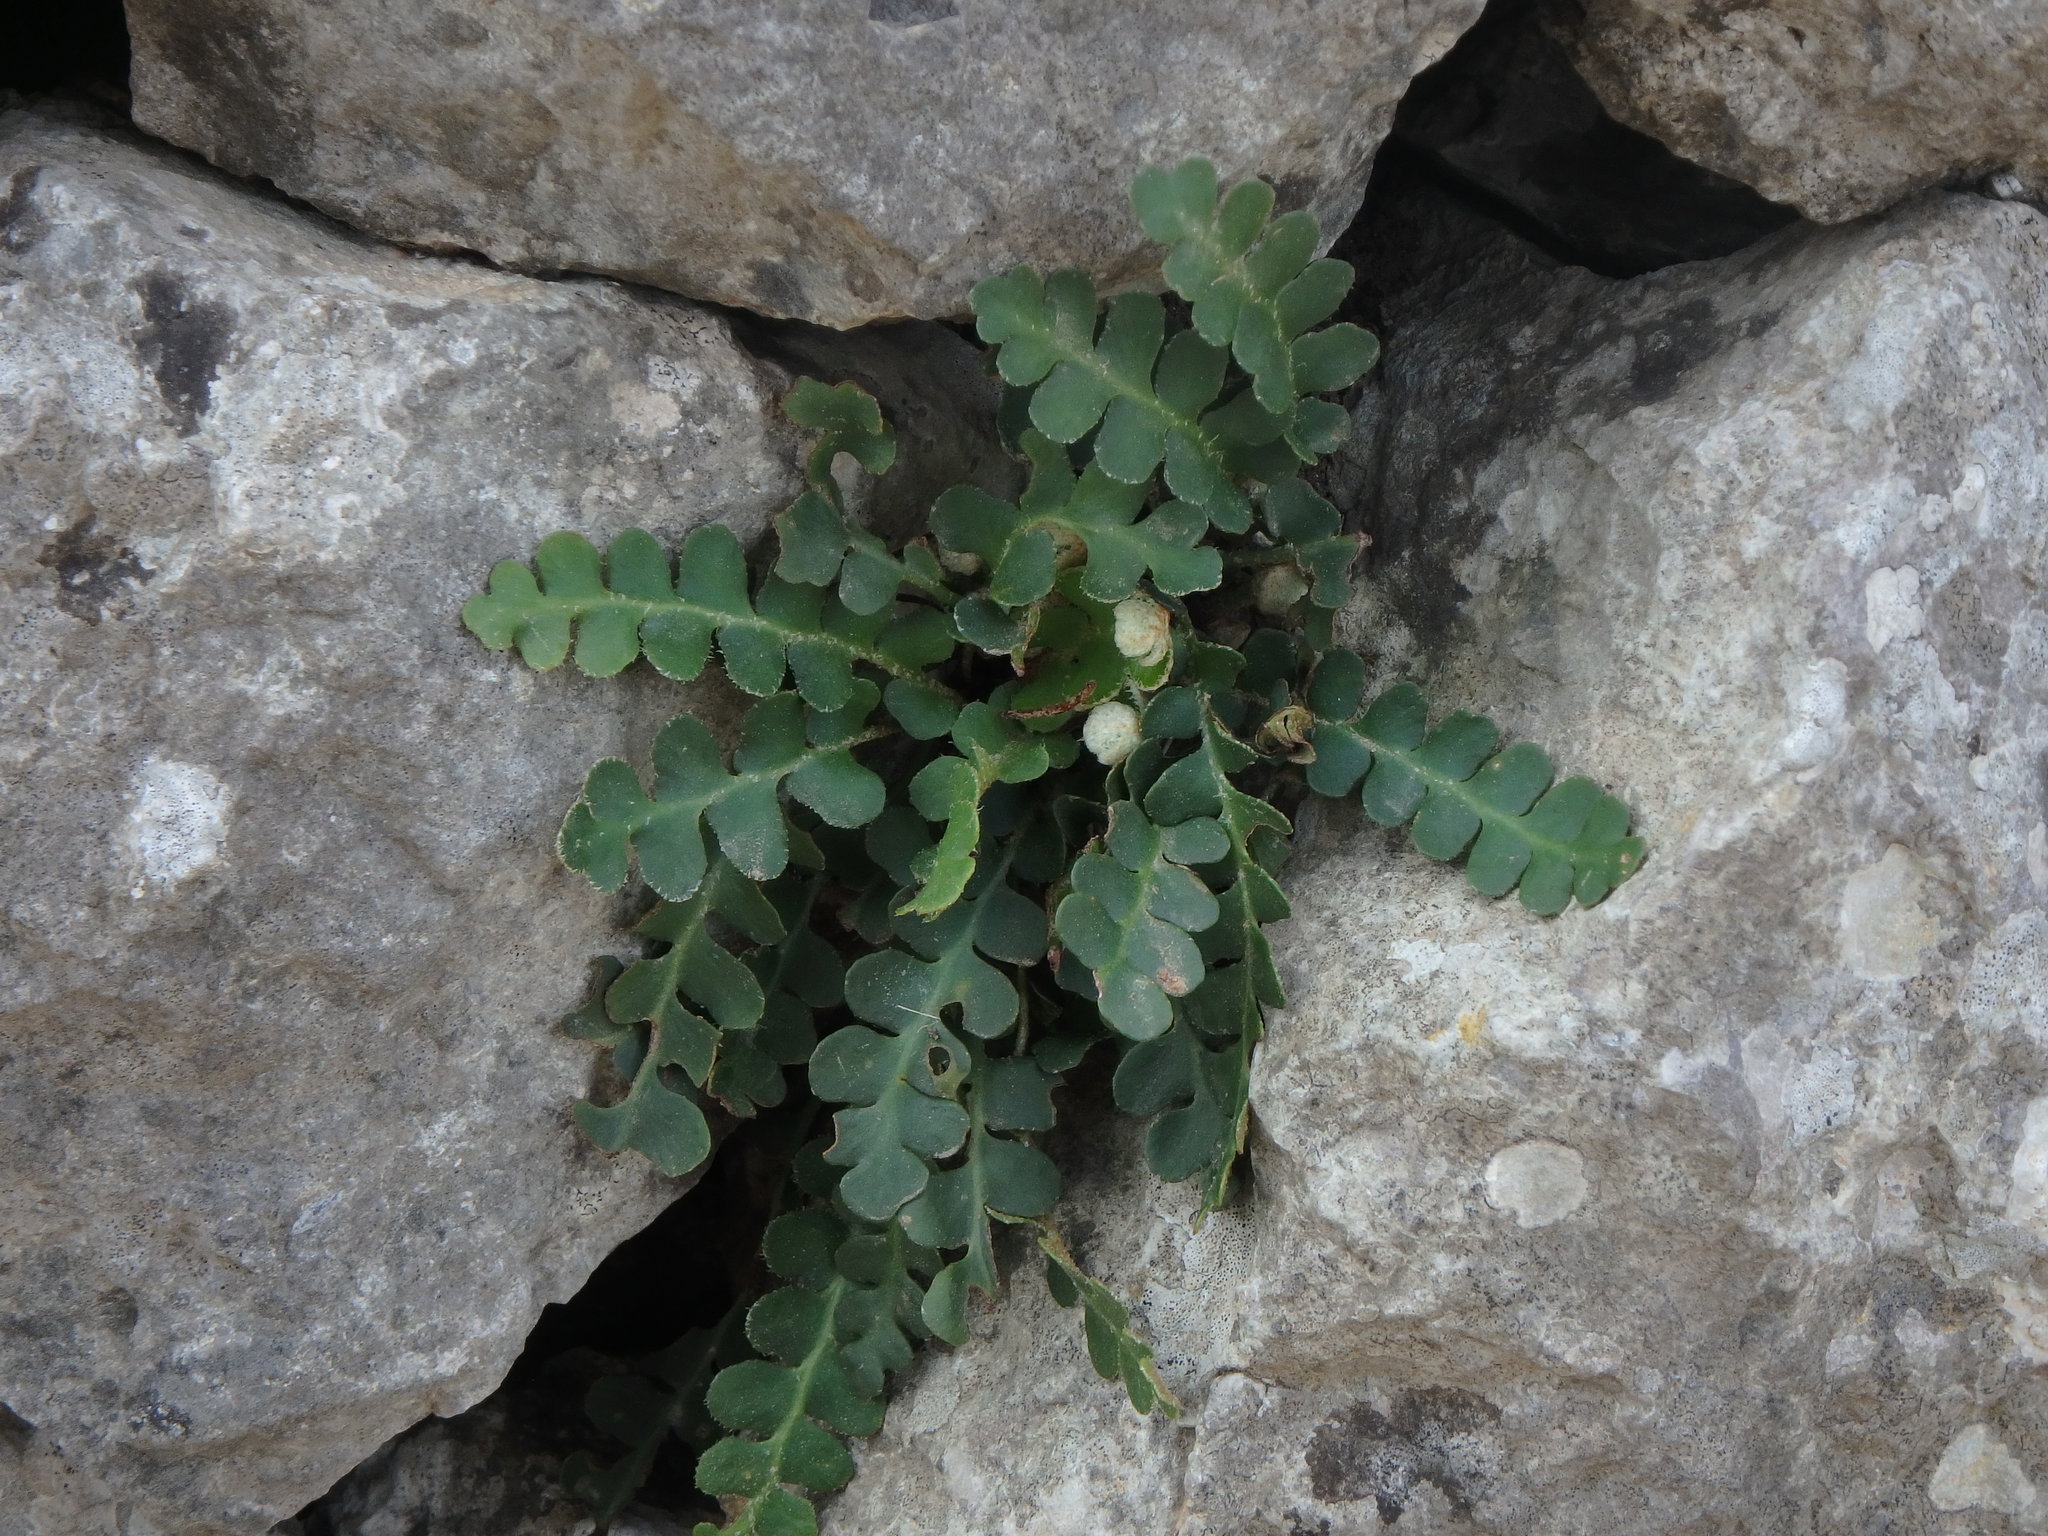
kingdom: Plantae
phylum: Tracheophyta
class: Polypodiopsida
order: Polypodiales
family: Aspleniaceae
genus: Asplenium
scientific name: Asplenium ceterach
